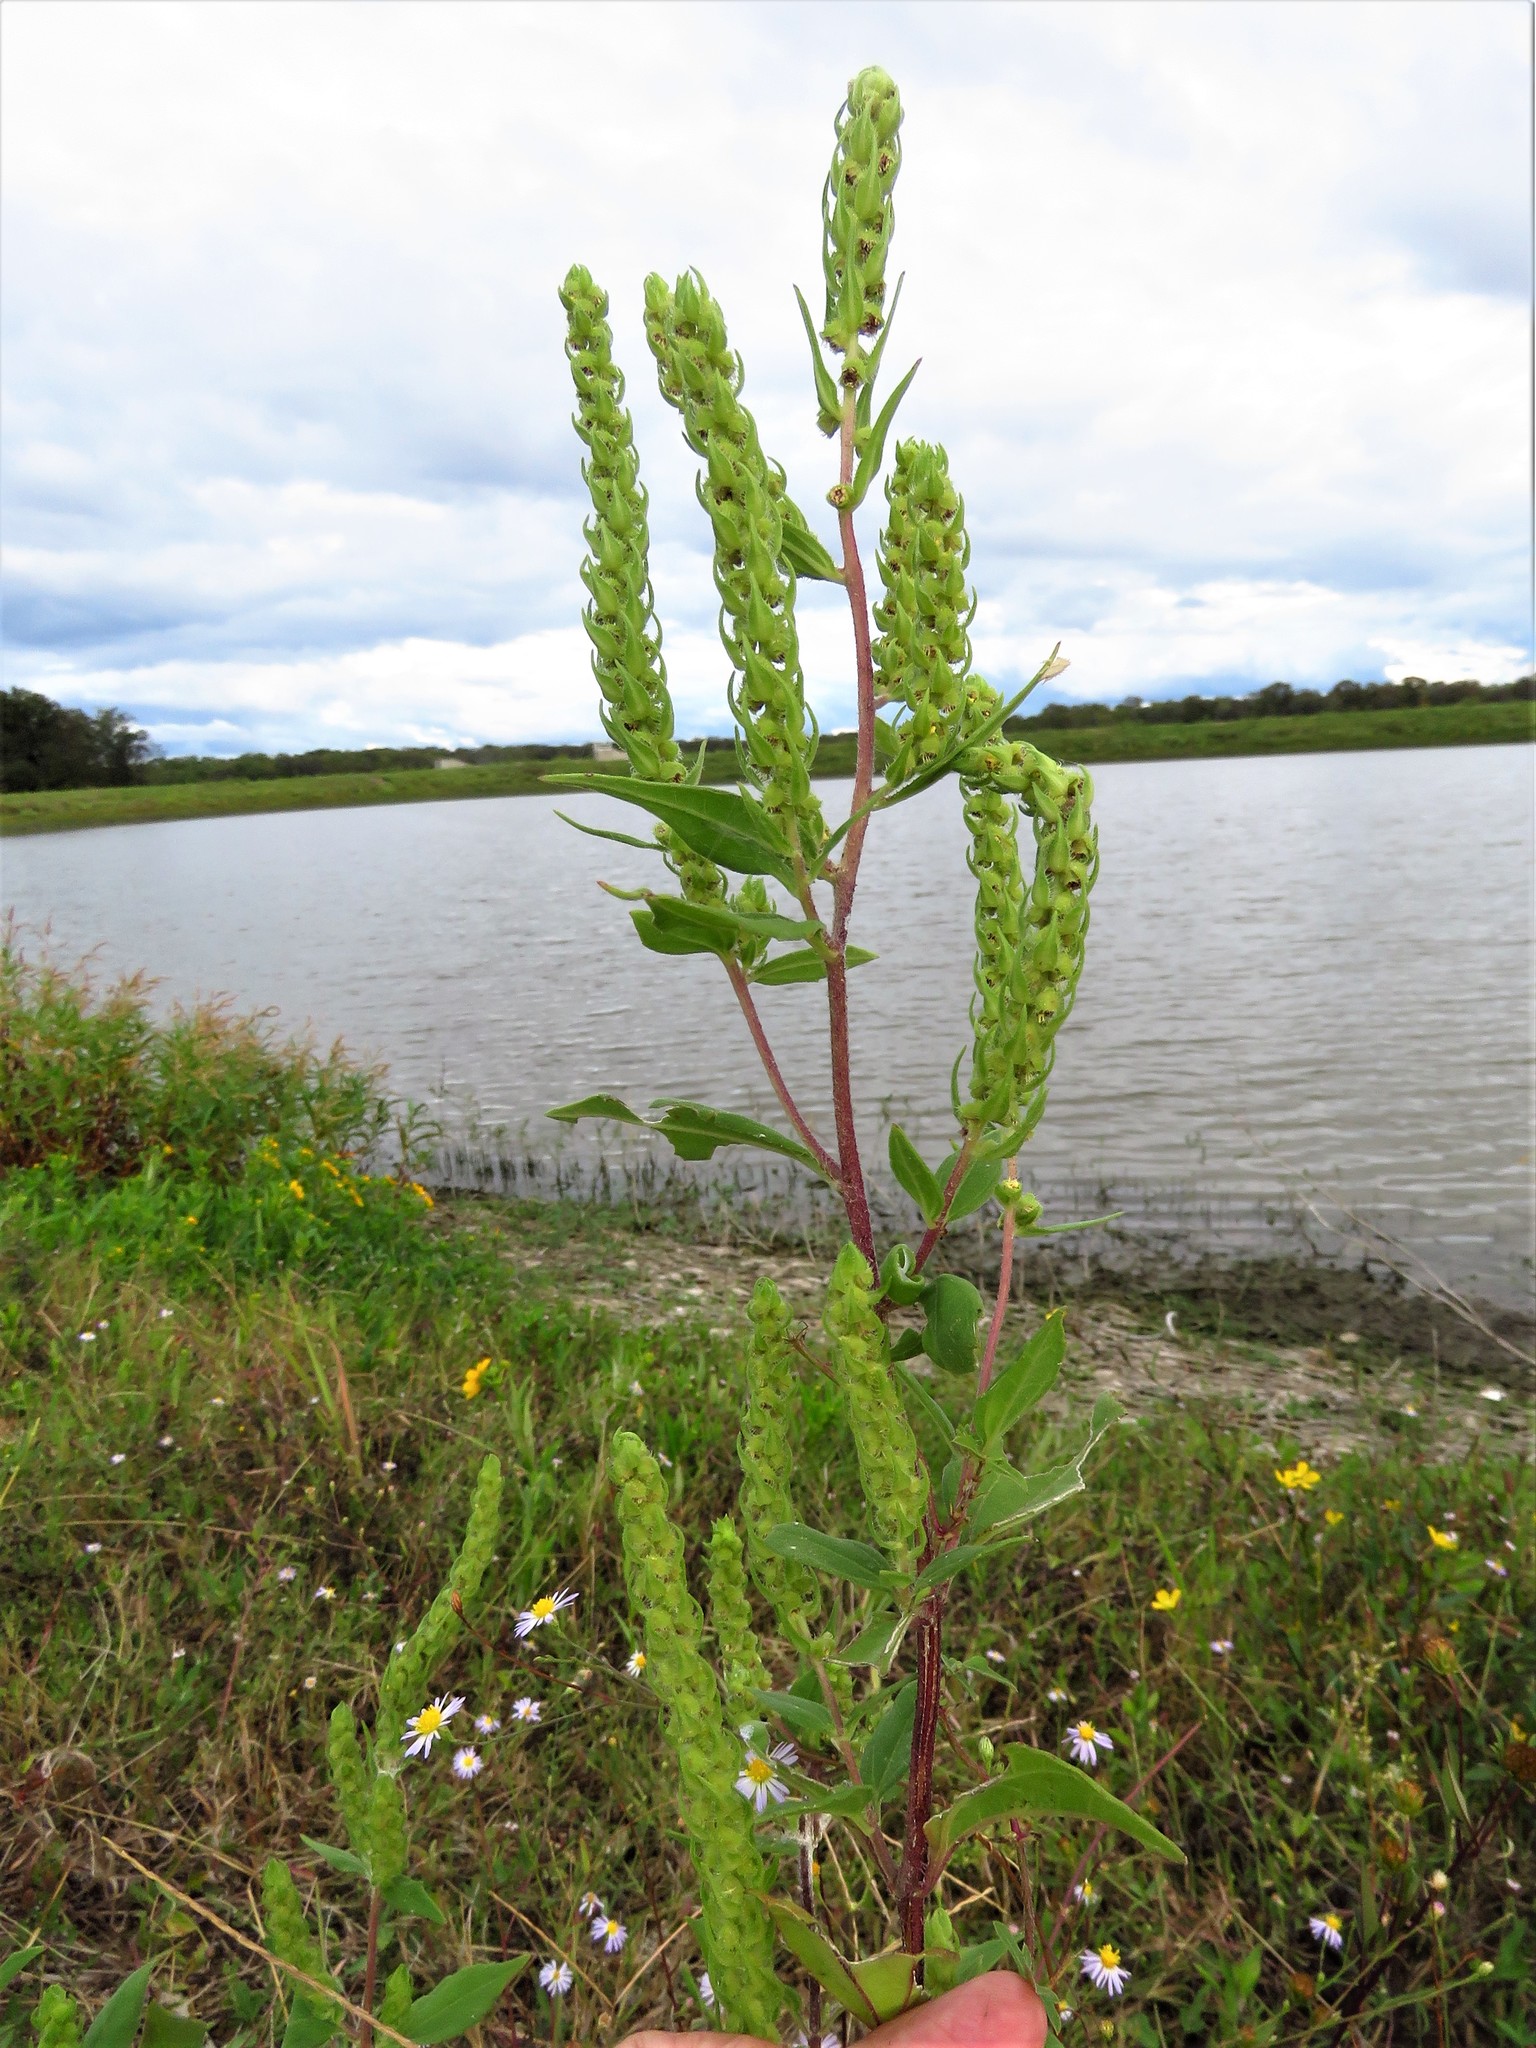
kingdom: Plantae
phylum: Tracheophyta
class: Magnoliopsida
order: Asterales
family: Asteraceae
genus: Iva
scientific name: Iva annua
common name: Marsh-elder
